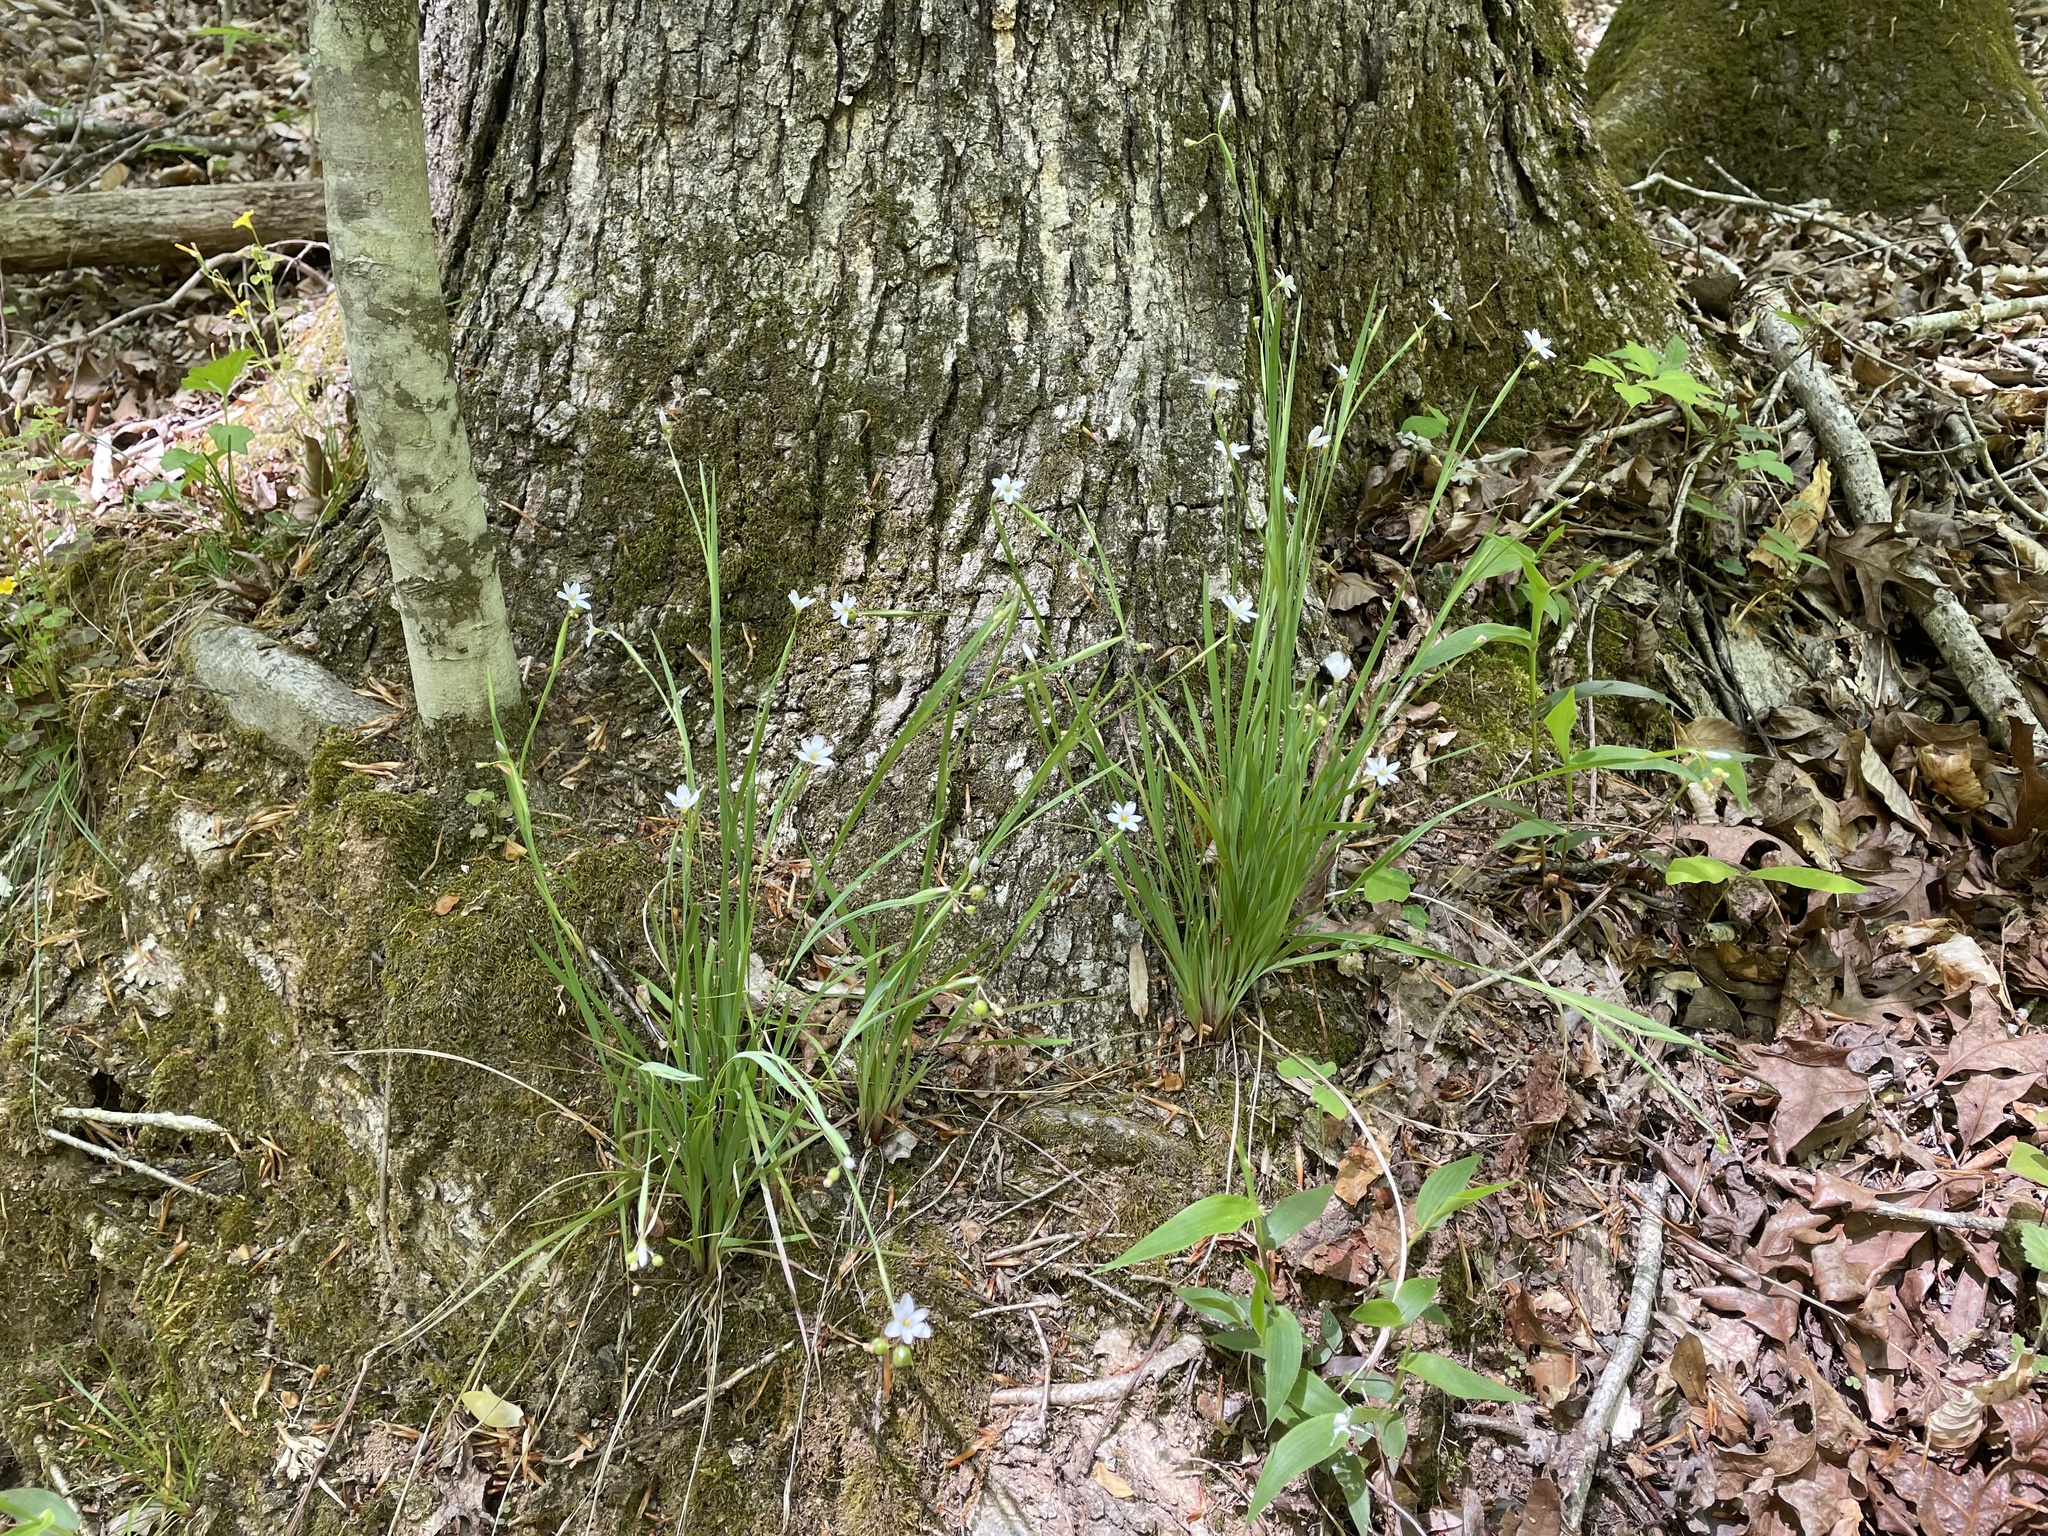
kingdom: Plantae
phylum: Tracheophyta
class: Liliopsida
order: Asparagales
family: Iridaceae
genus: Sisyrinchium
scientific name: Sisyrinchium albidum
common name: Pale blue-eyed-grass
